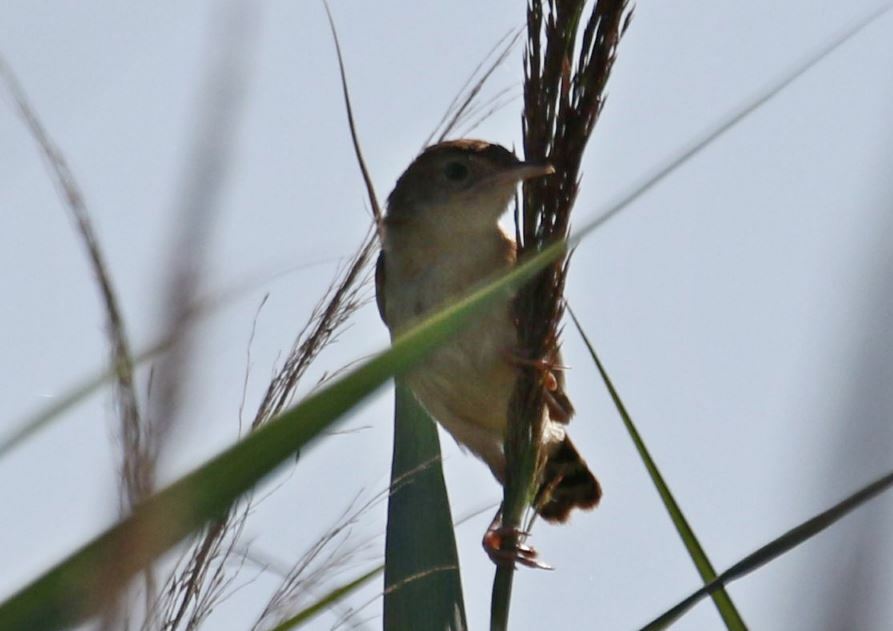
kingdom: Animalia
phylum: Chordata
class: Aves
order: Passeriformes
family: Cisticolidae
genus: Cisticola
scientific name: Cisticola juncidis
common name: Zitting cisticola
